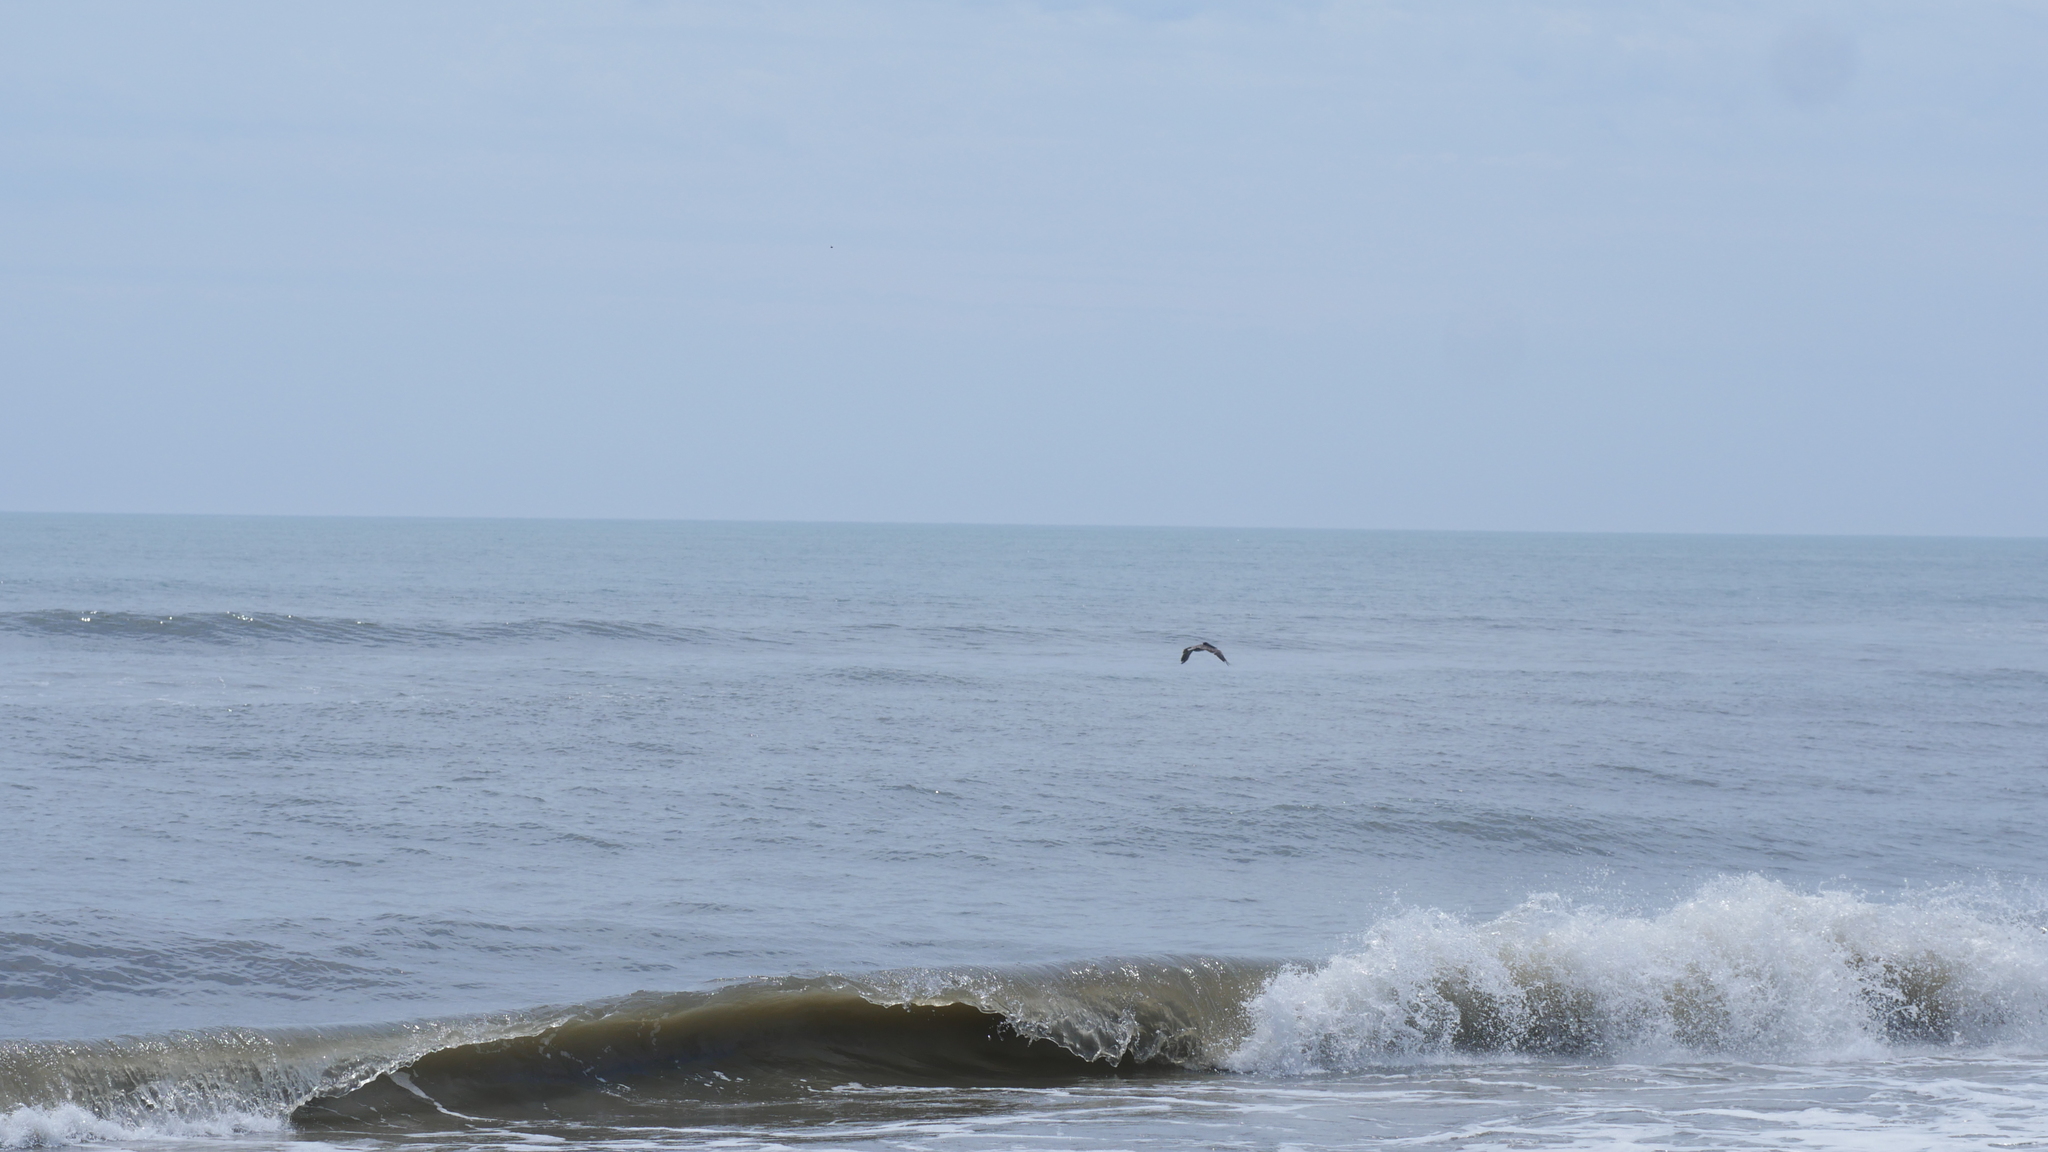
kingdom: Animalia
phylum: Chordata
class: Aves
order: Pelecaniformes
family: Pelecanidae
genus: Pelecanus
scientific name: Pelecanus occidentalis
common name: Brown pelican
